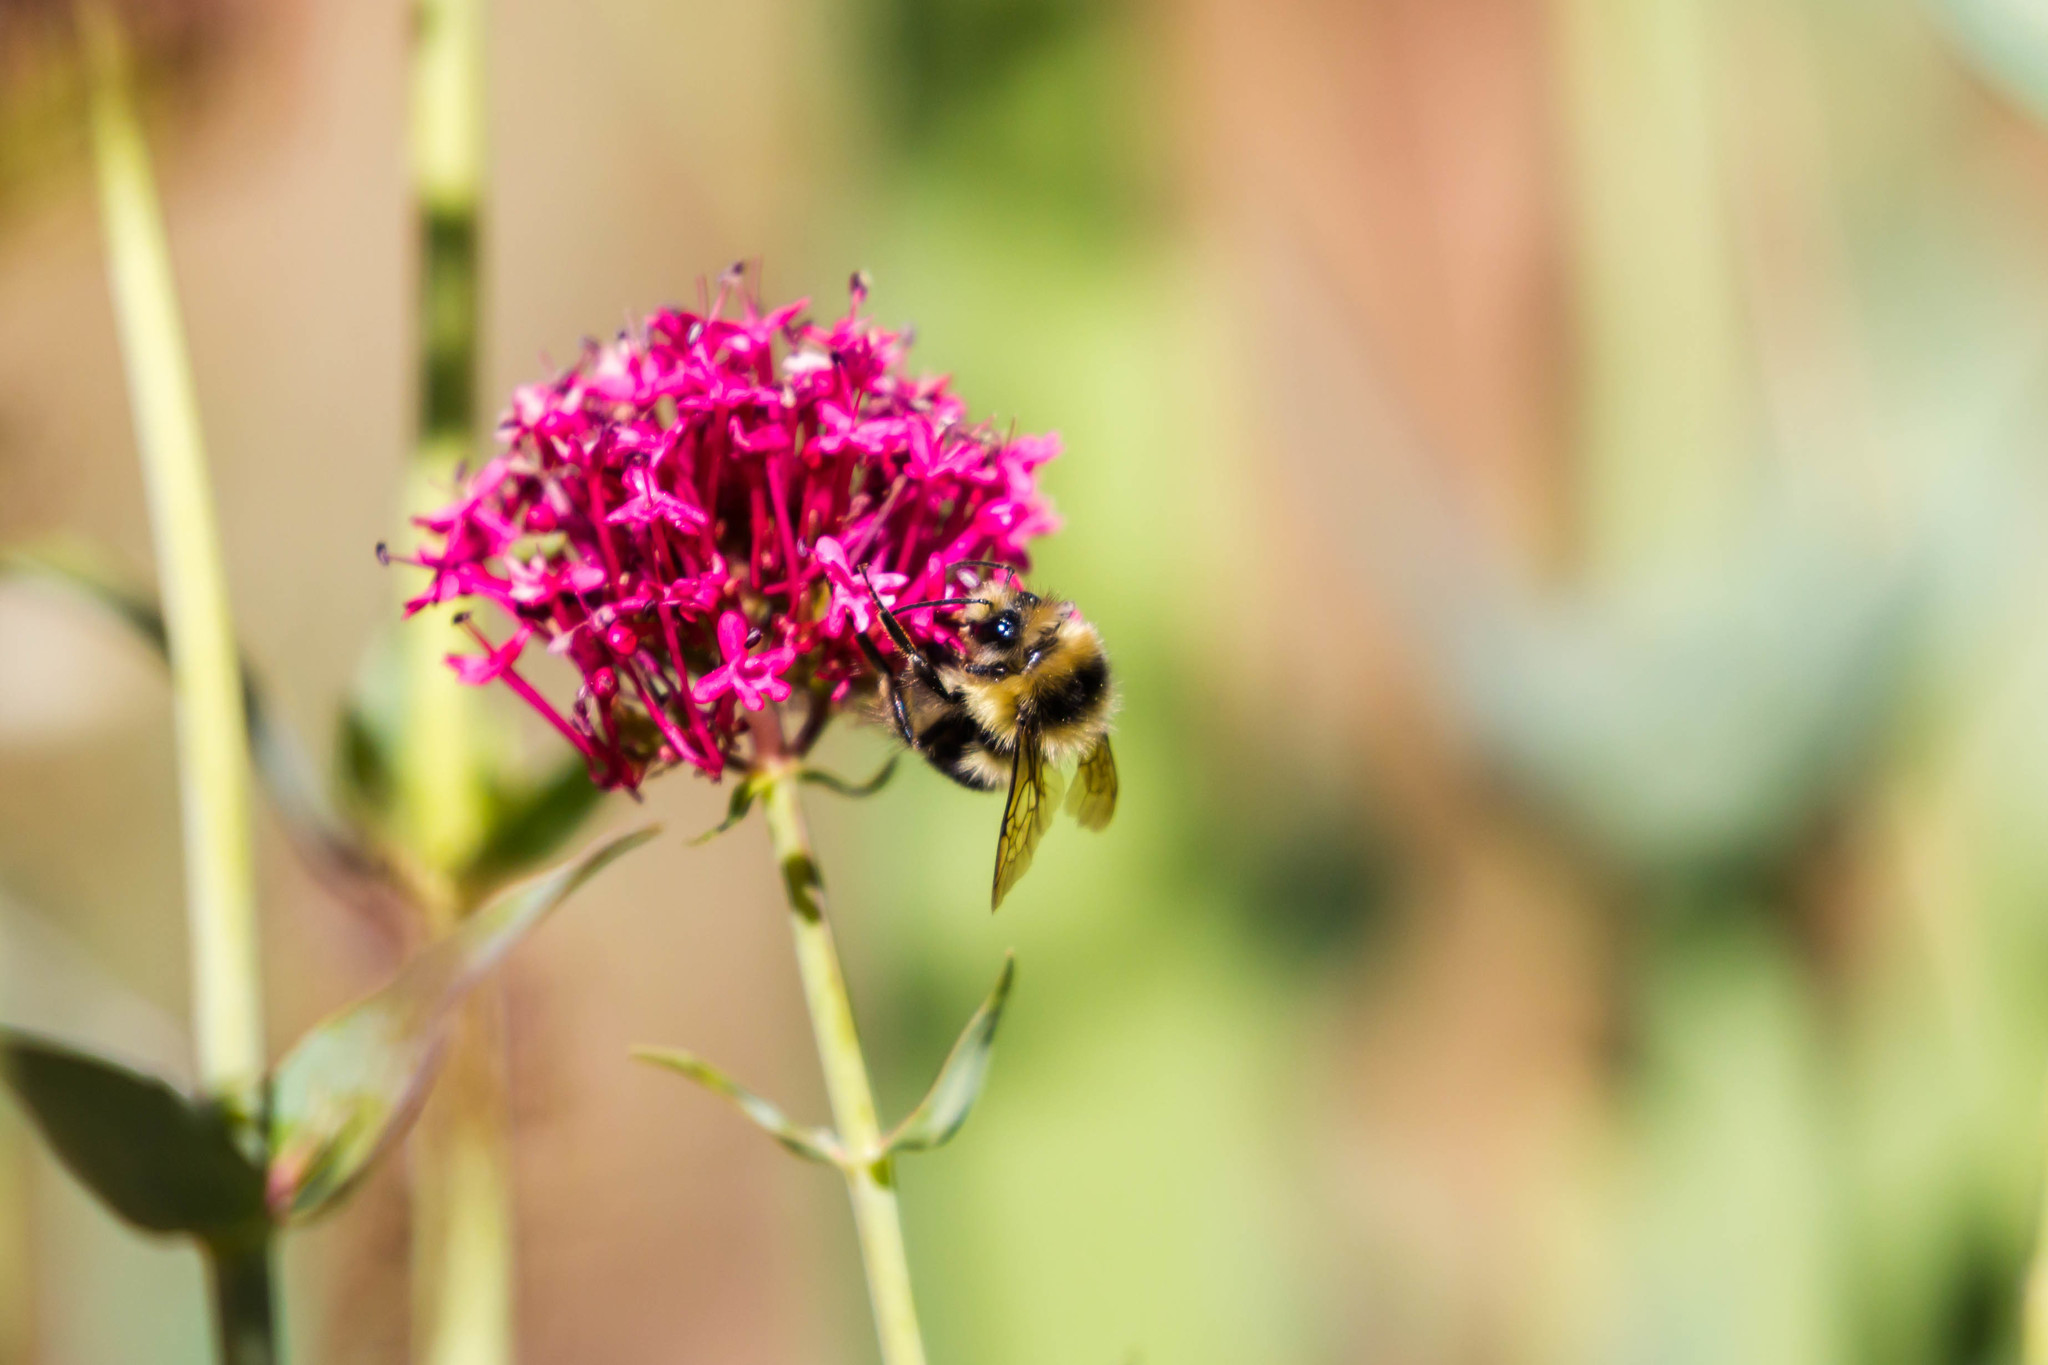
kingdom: Animalia
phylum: Arthropoda
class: Insecta
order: Hymenoptera
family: Apidae
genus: Bombus
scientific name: Bombus melanopygus
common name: Black tail bumble bee
